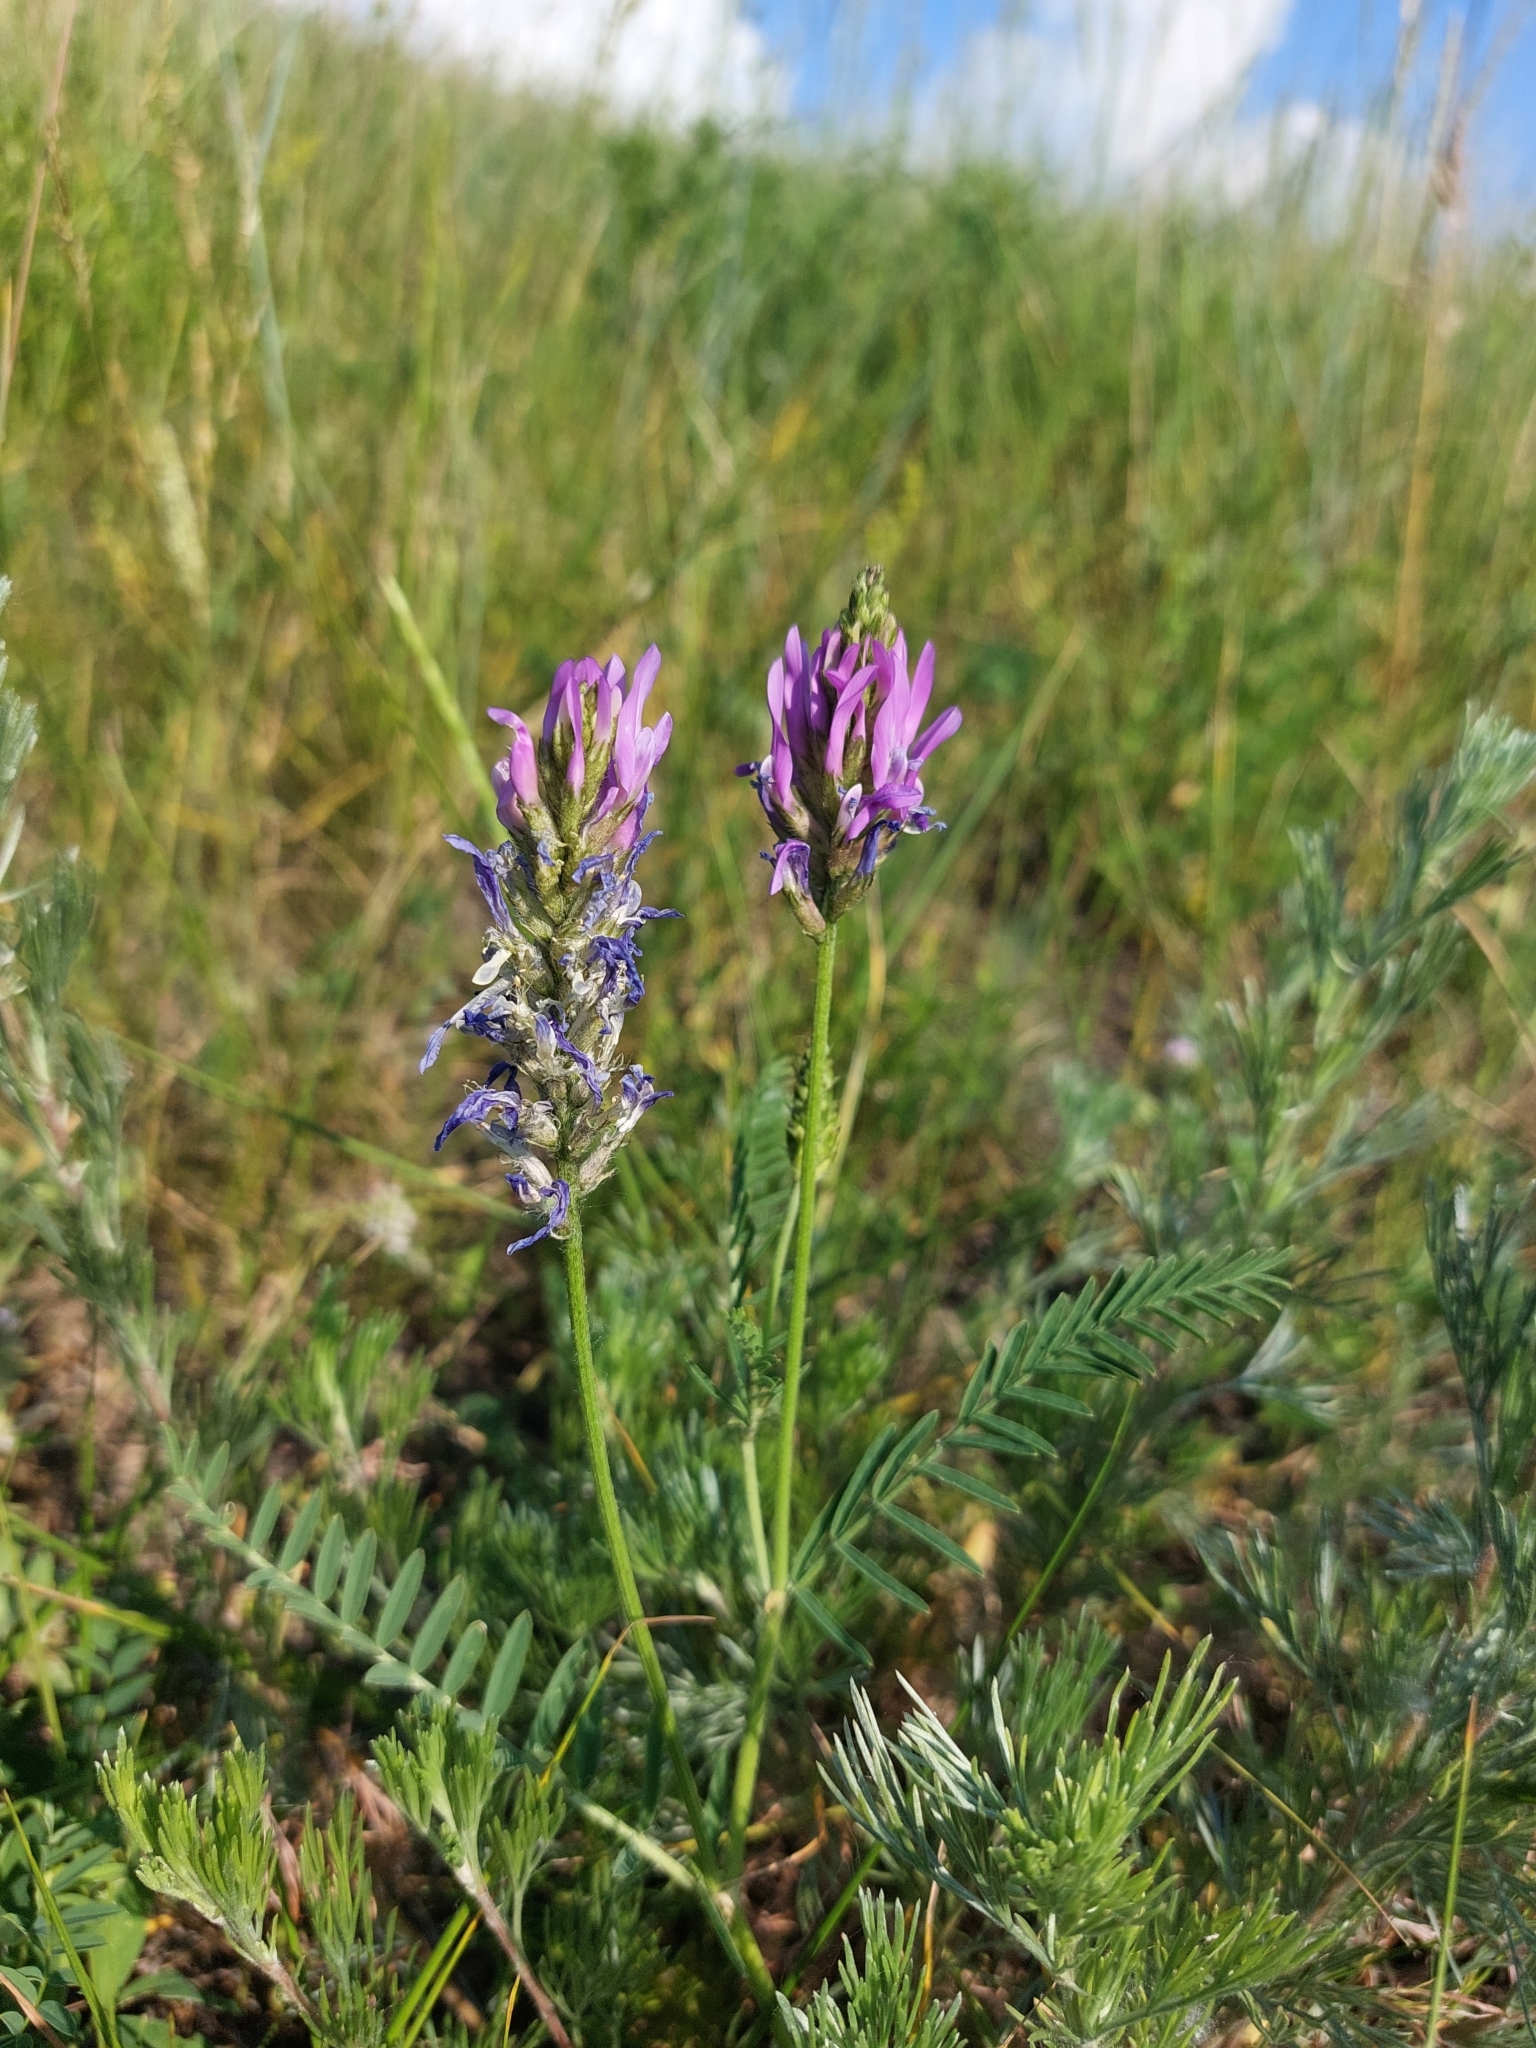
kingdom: Plantae
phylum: Tracheophyta
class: Magnoliopsida
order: Fabales
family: Fabaceae
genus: Astragalus
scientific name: Astragalus onobrychis
